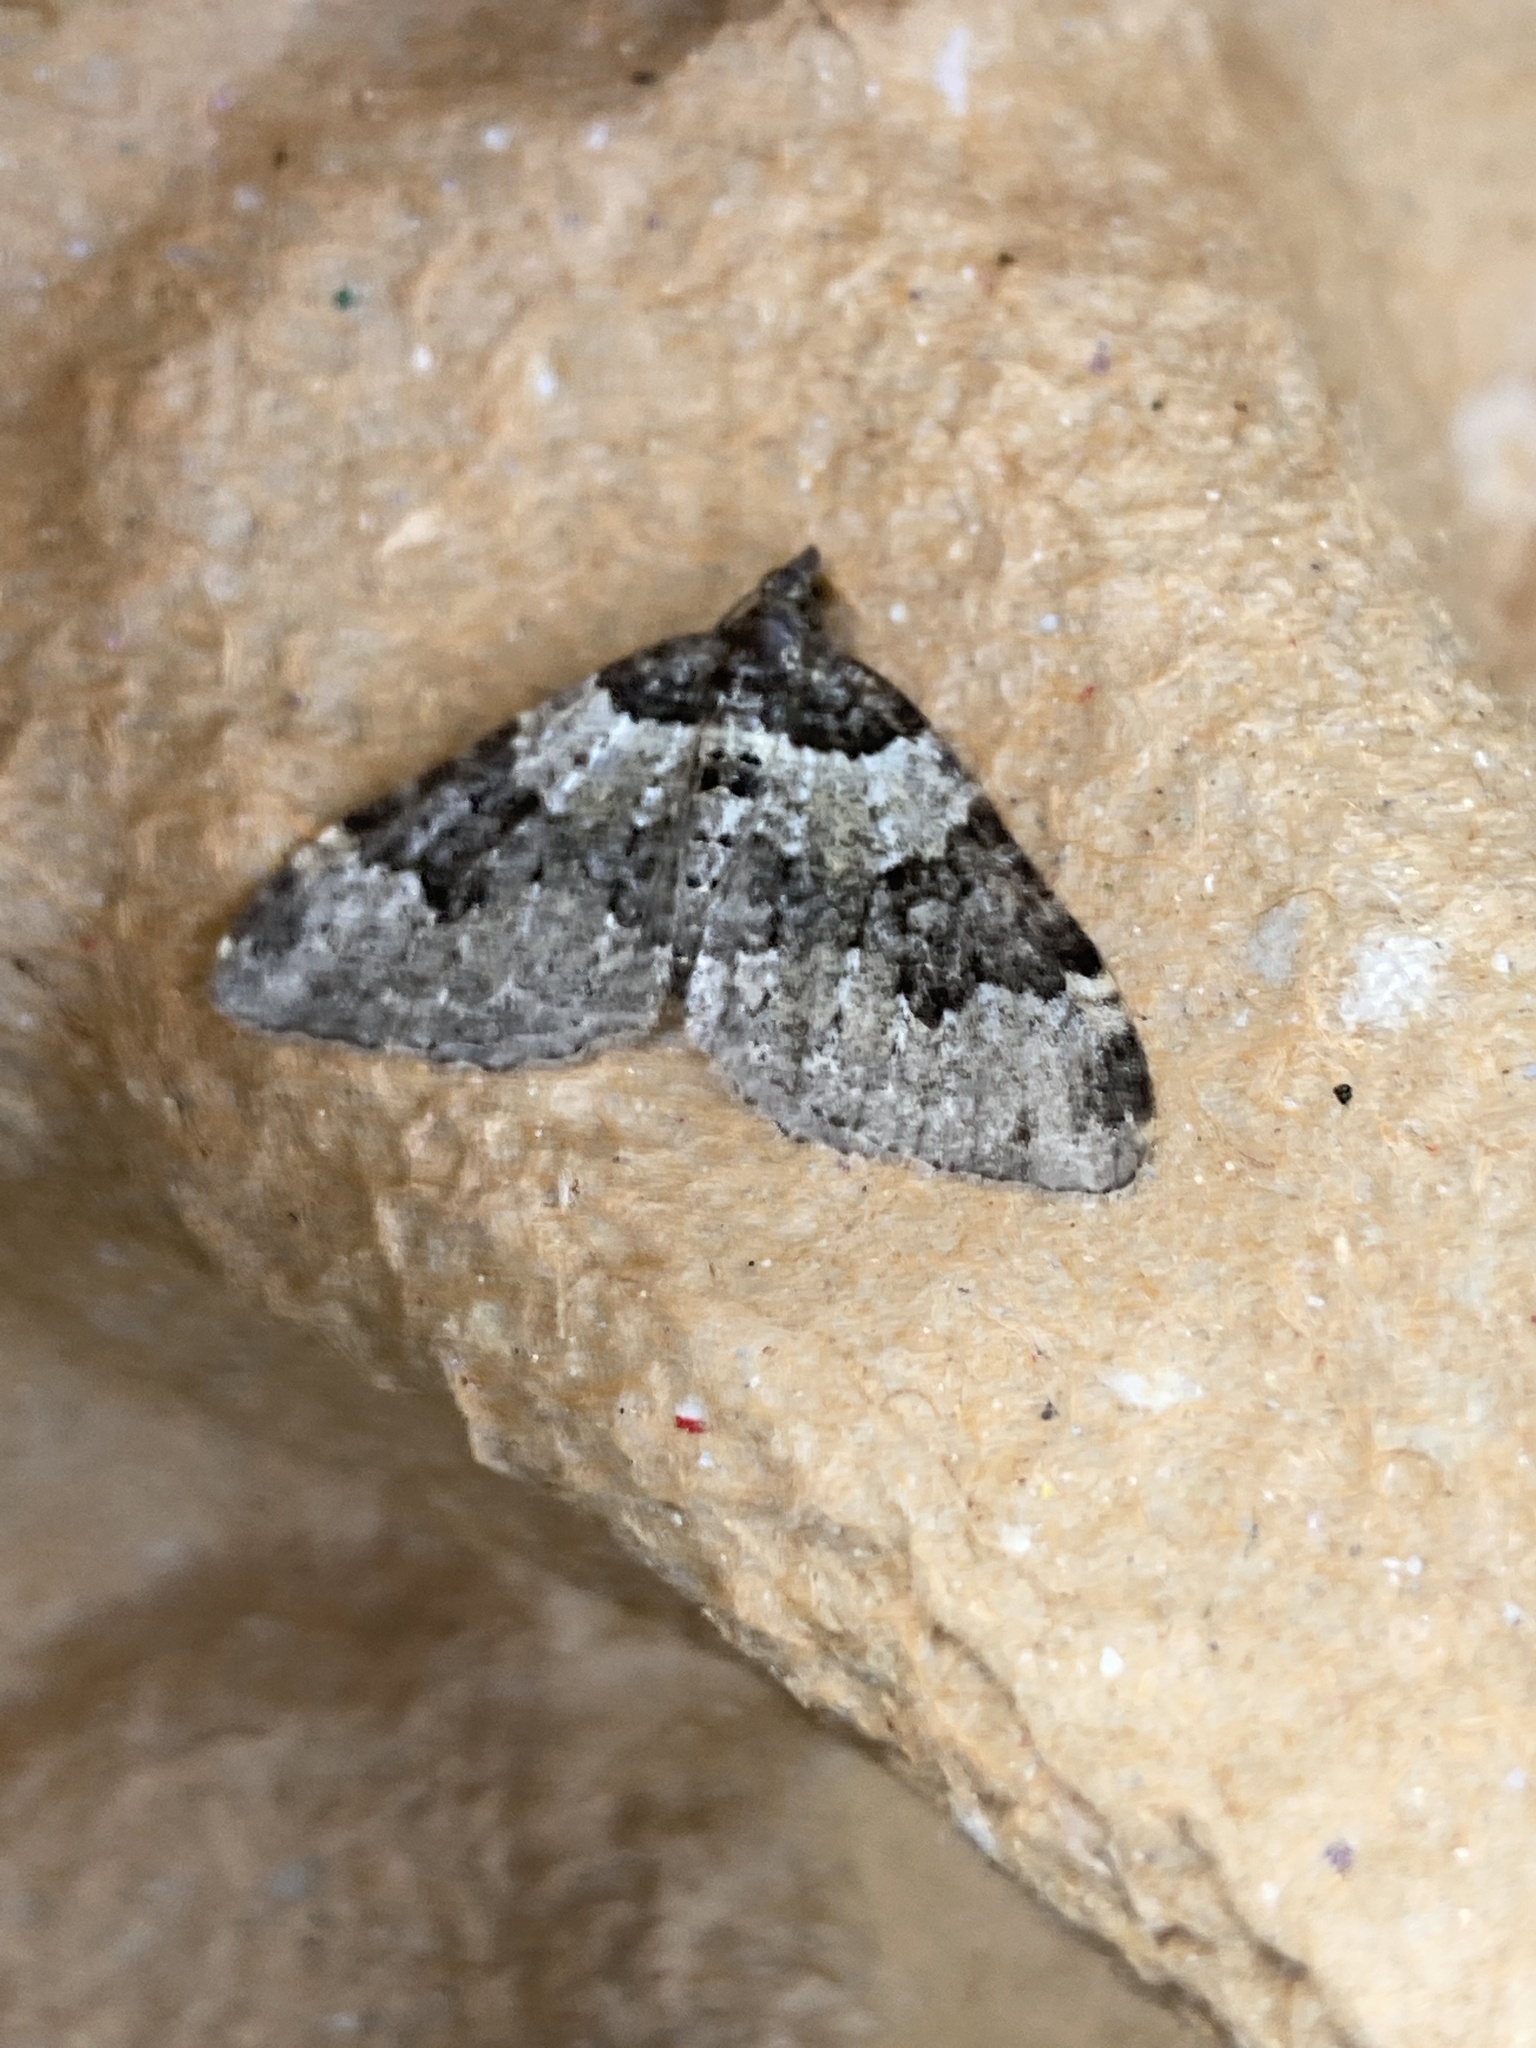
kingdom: Animalia
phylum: Arthropoda
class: Insecta
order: Lepidoptera
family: Geometridae
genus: Xanthorhoe
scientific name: Xanthorhoe fluctuata
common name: Garden carpet
